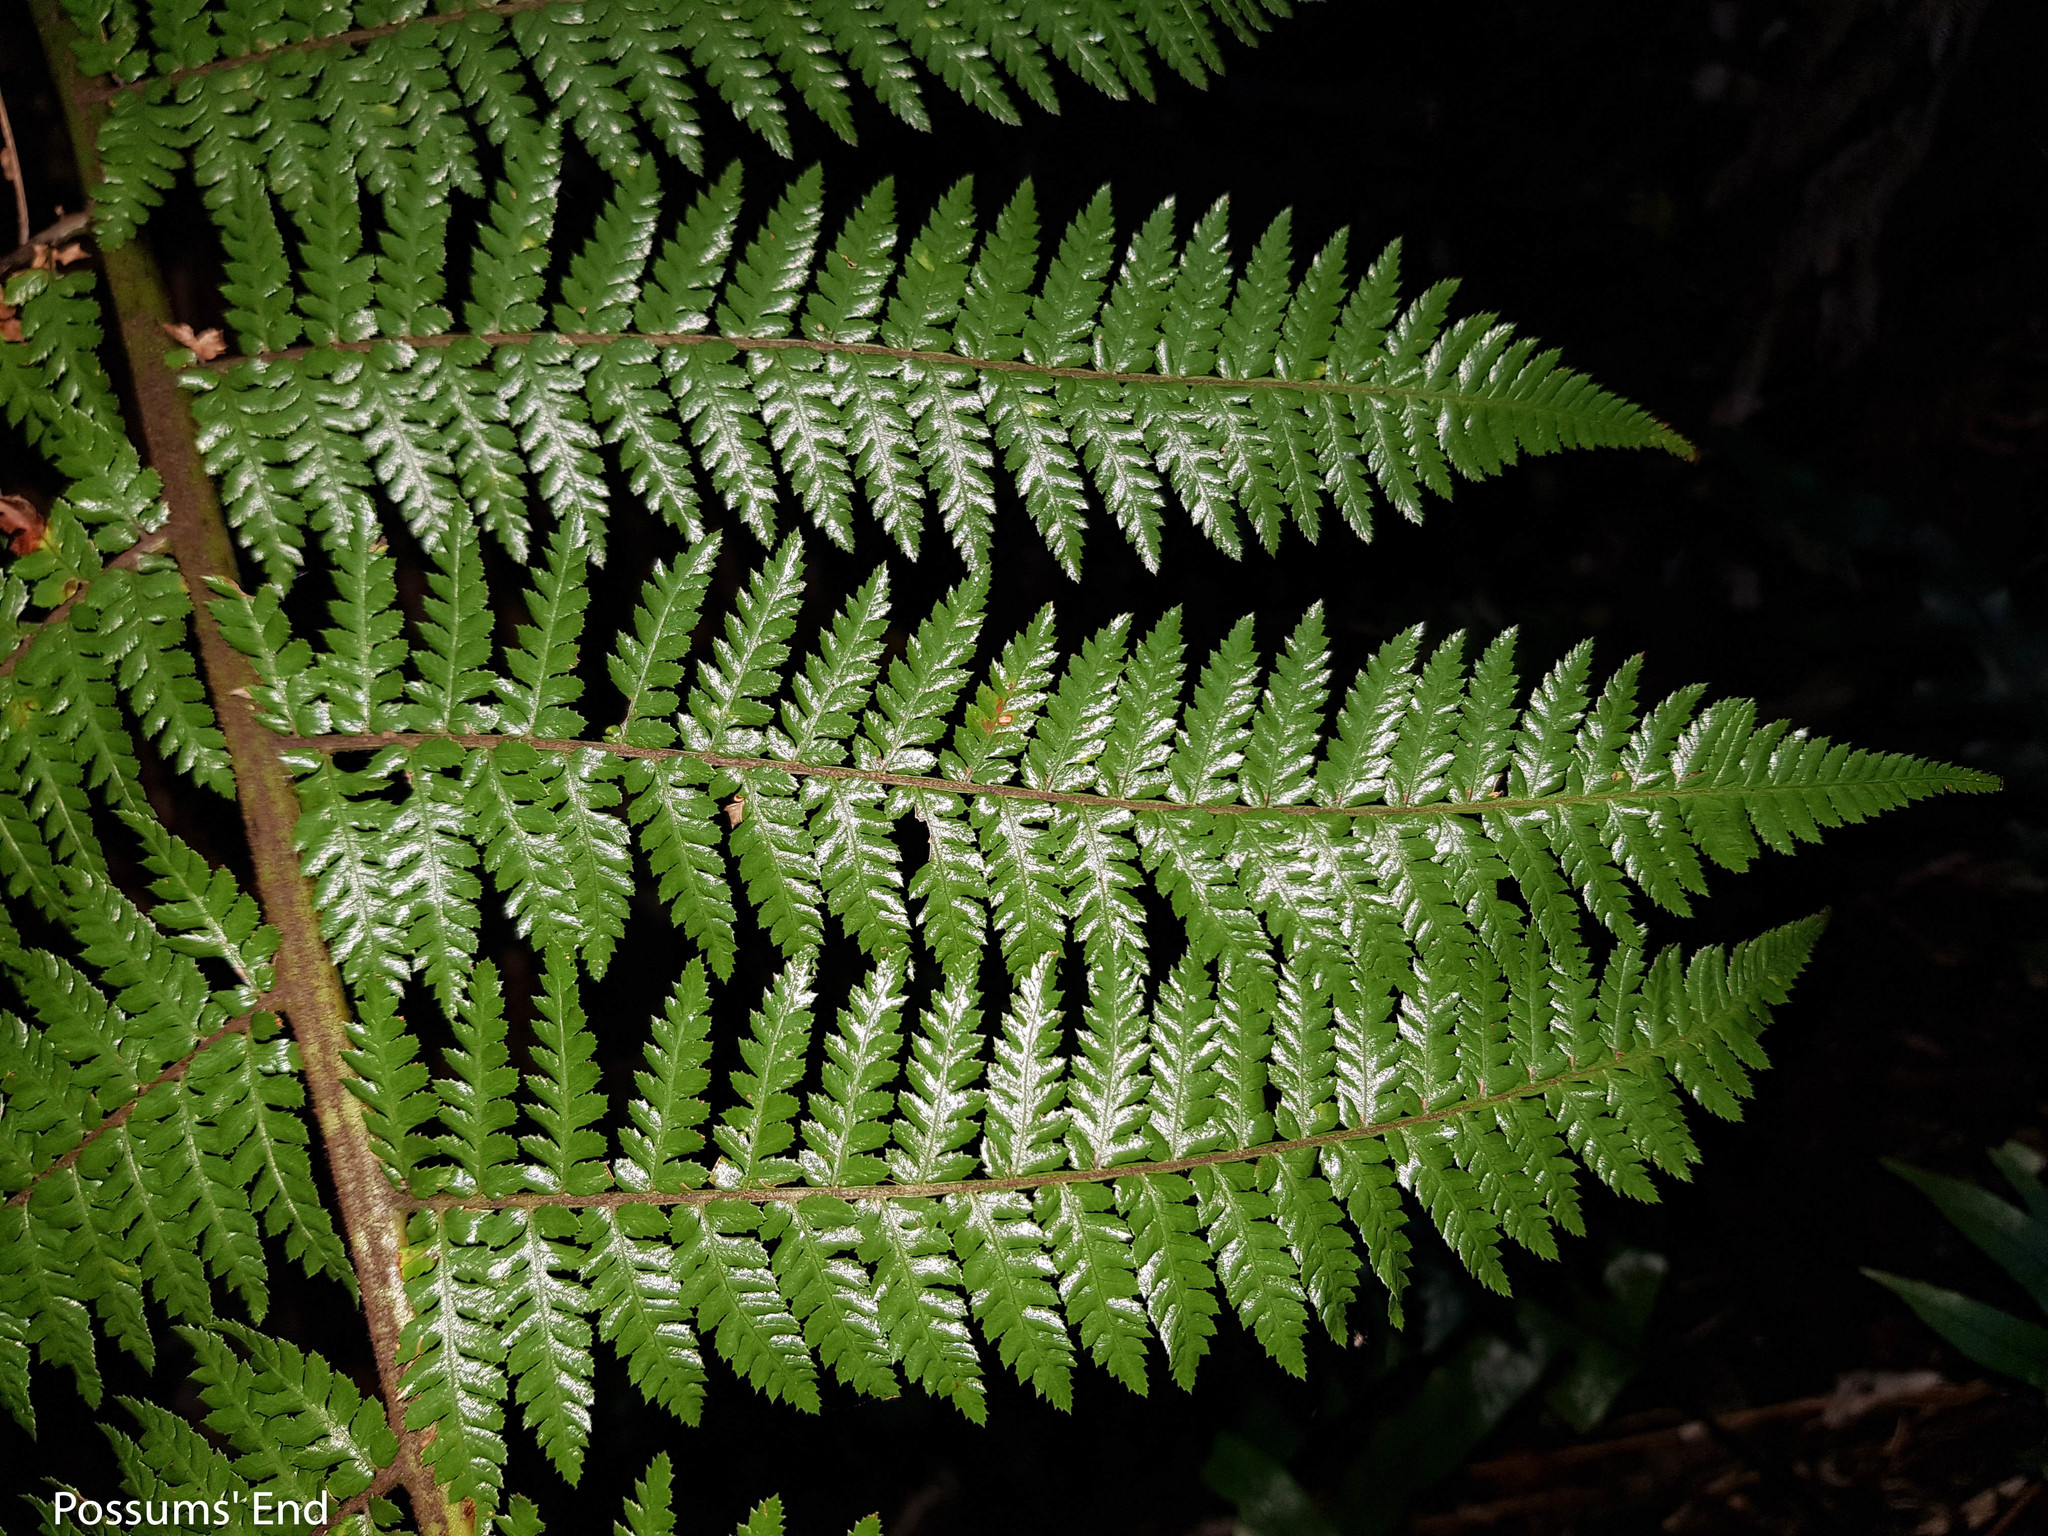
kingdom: Plantae
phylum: Tracheophyta
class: Polypodiopsida
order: Cyatheales
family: Dicksoniaceae
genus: Dicksonia
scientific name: Dicksonia fibrosa
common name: Golden tree fern
